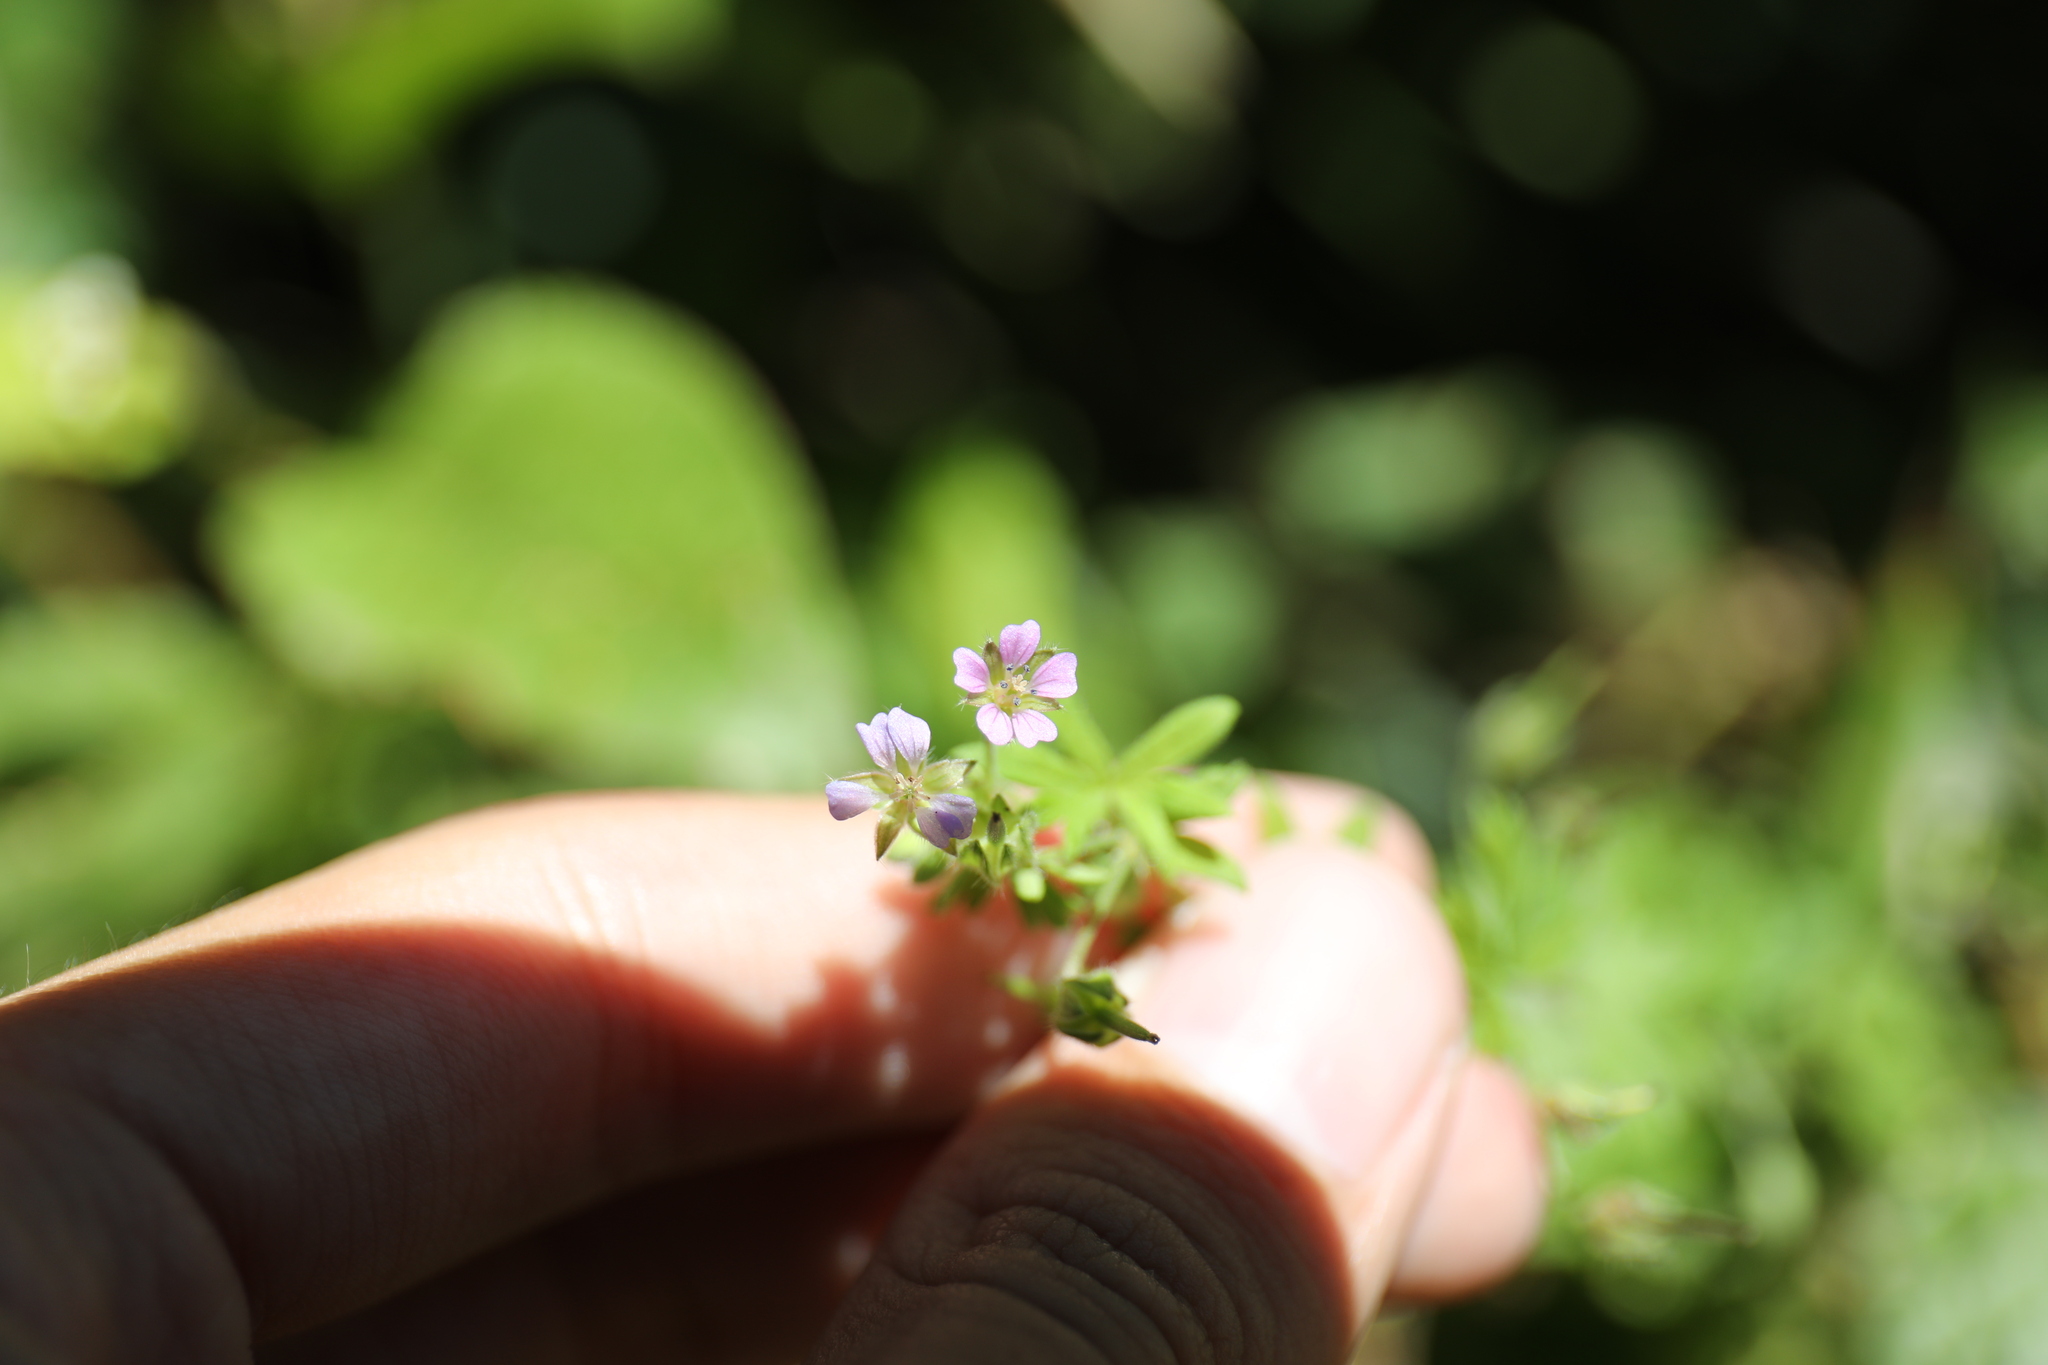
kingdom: Plantae
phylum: Tracheophyta
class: Magnoliopsida
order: Geraniales
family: Geraniaceae
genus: Geranium
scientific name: Geranium pusillum
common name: Small geranium
